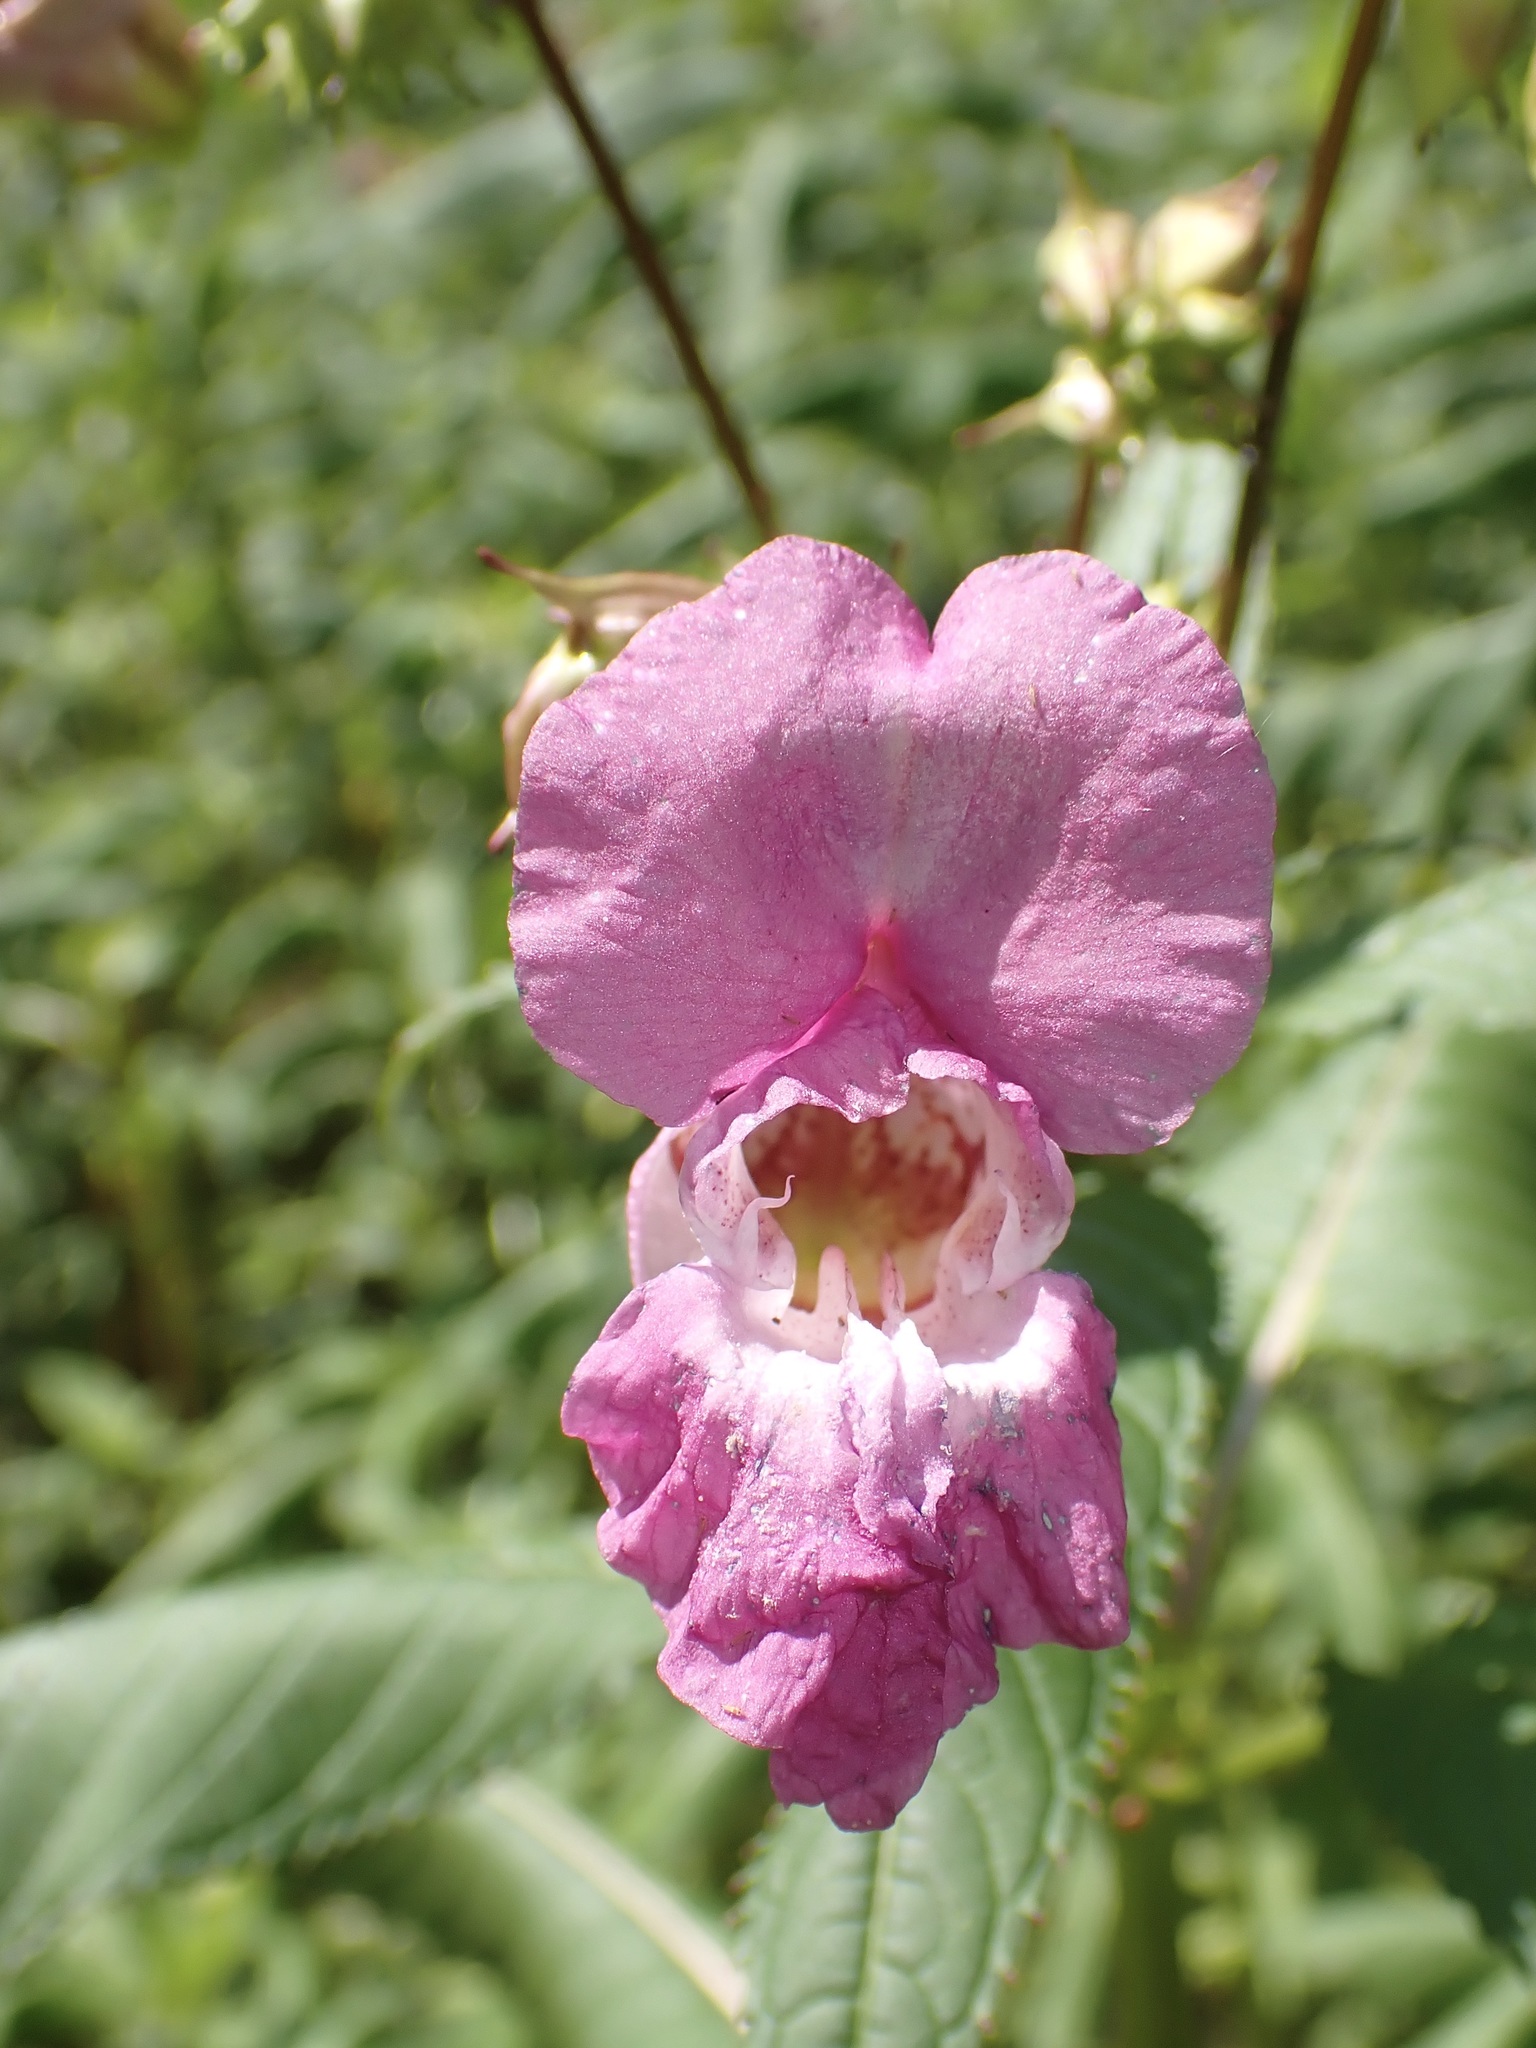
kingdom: Plantae
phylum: Tracheophyta
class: Magnoliopsida
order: Ericales
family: Balsaminaceae
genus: Impatiens
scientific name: Impatiens glandulifera
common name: Himalayan balsam
